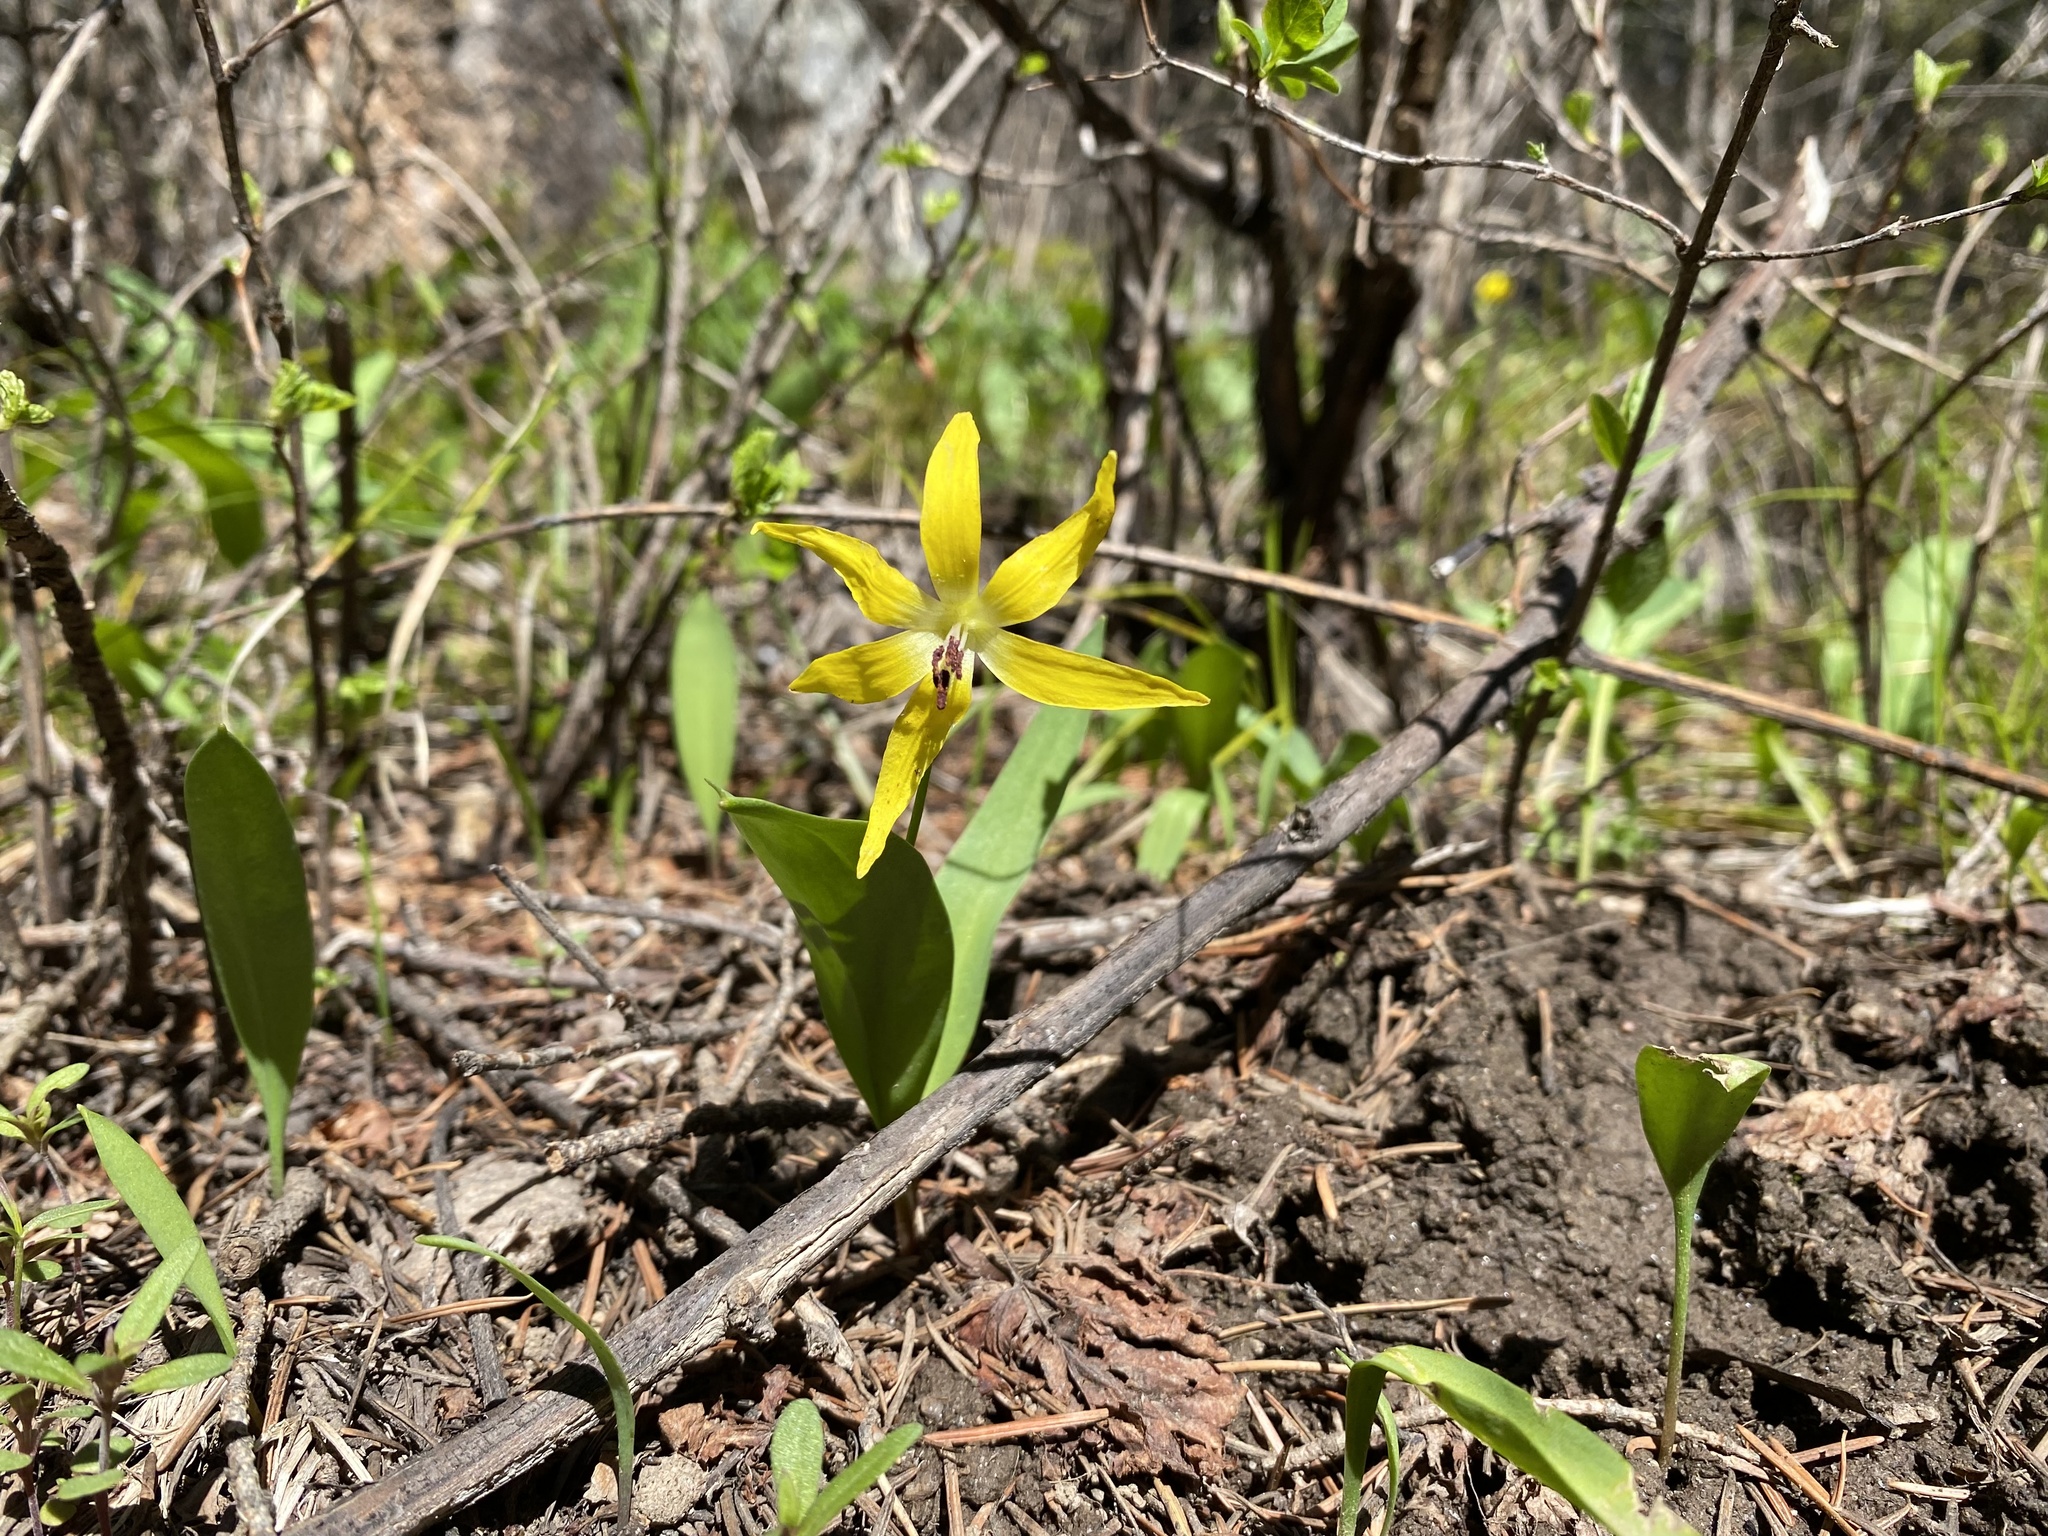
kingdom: Plantae
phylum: Tracheophyta
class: Liliopsida
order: Liliales
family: Liliaceae
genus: Erythronium
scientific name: Erythronium grandiflorum
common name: Avalanche-lily
